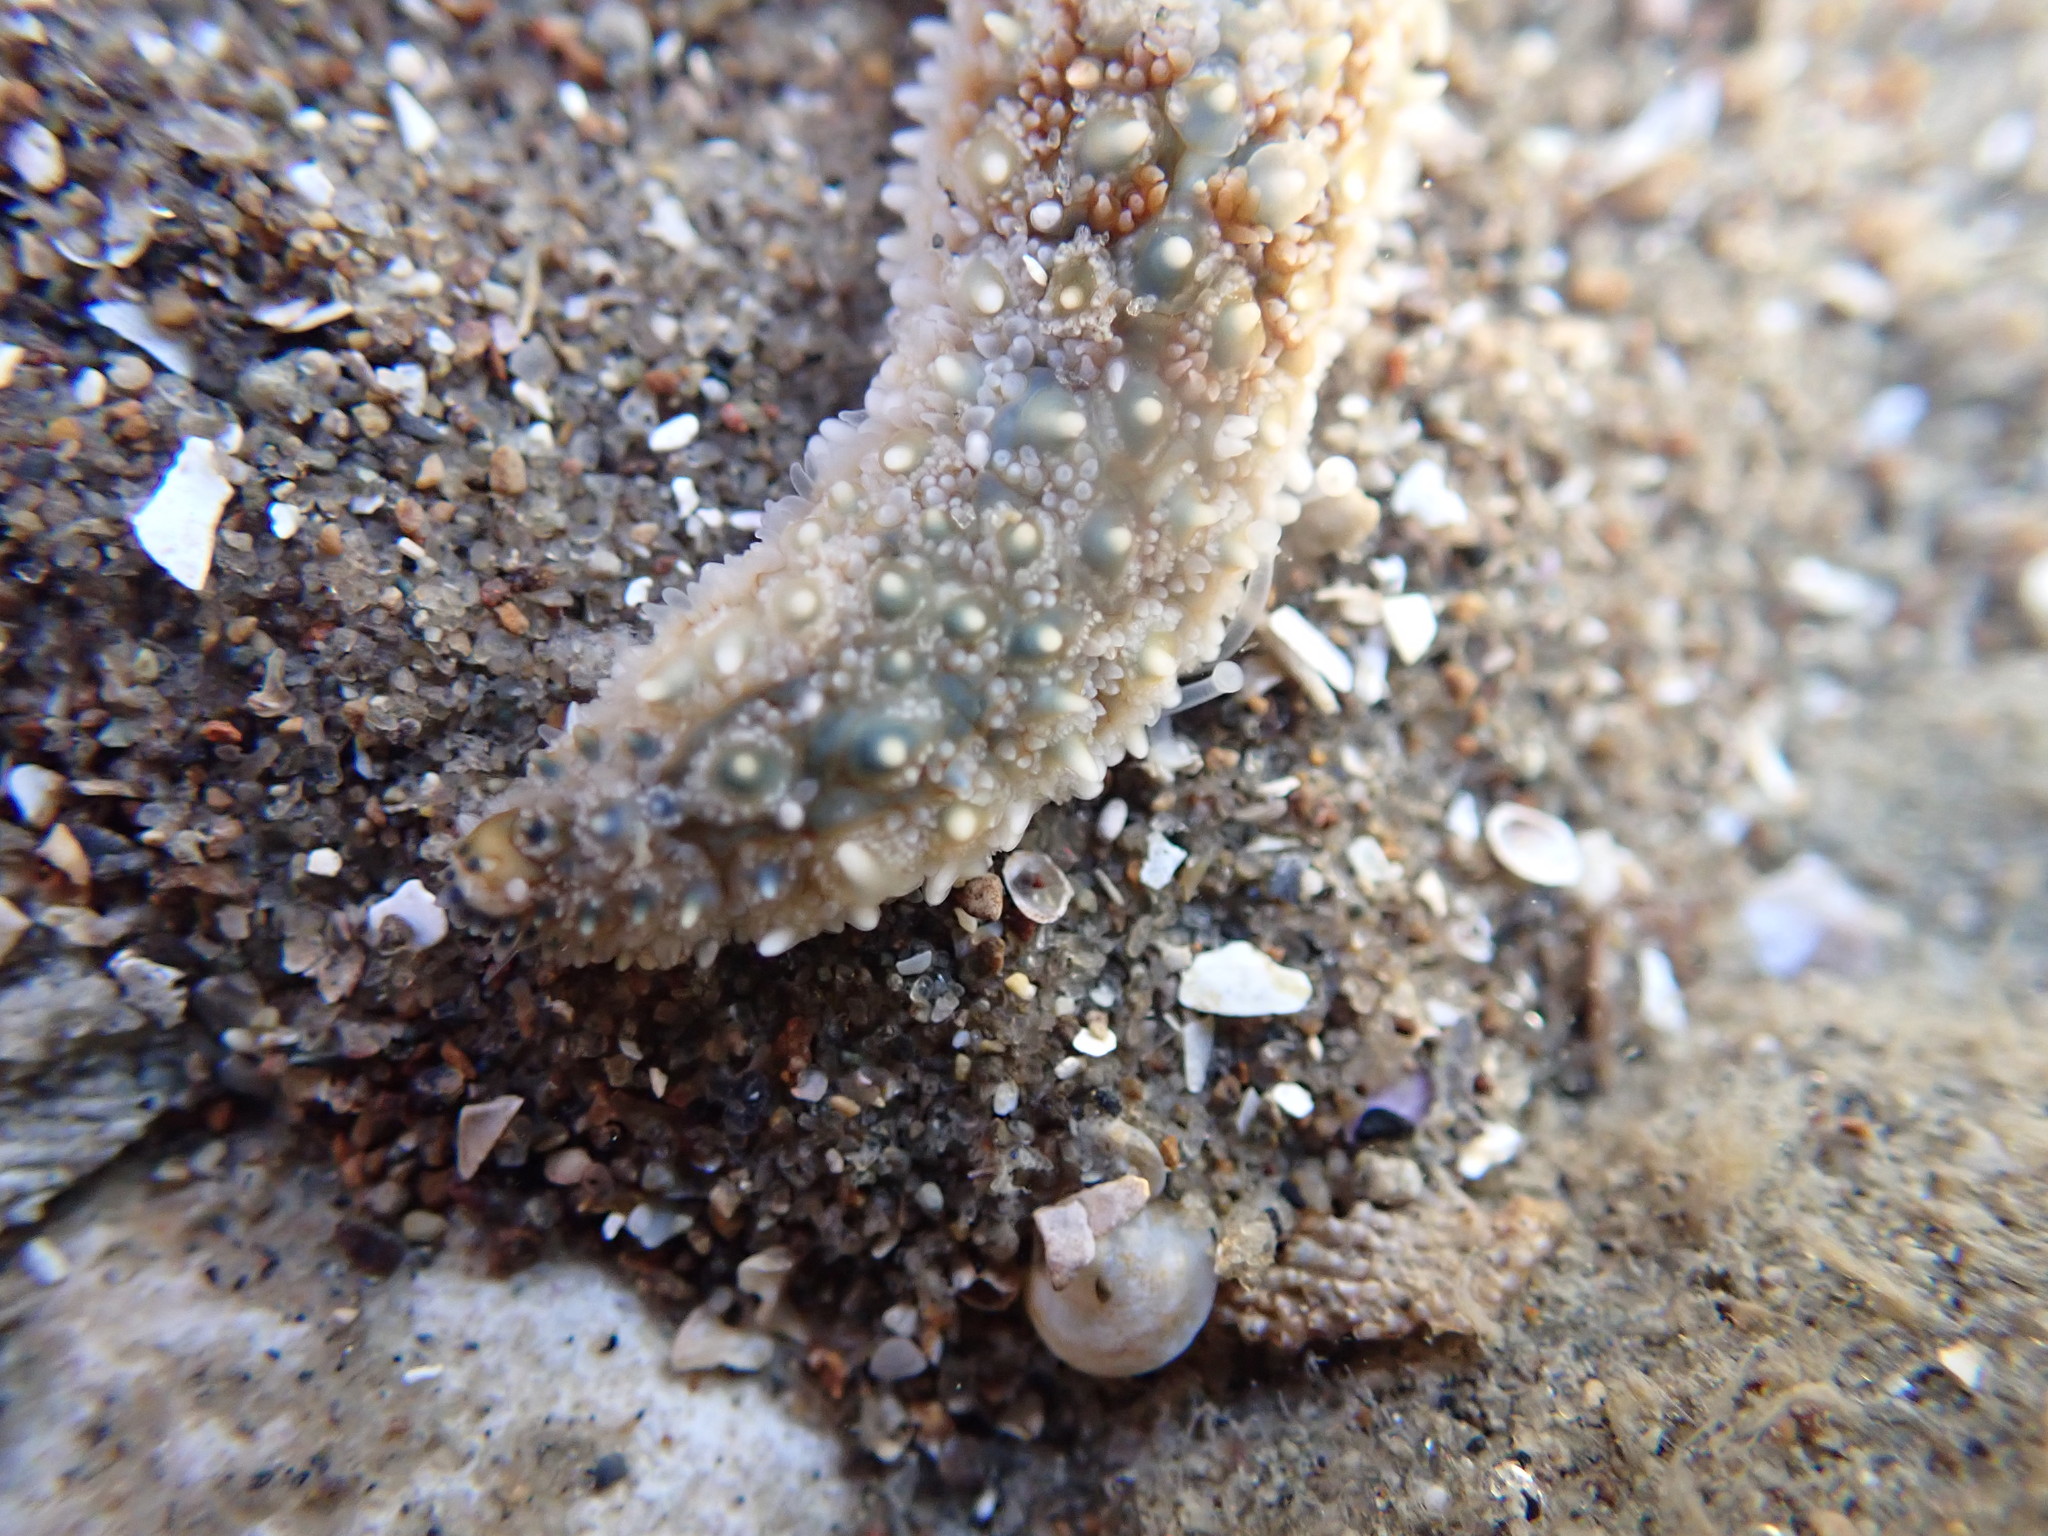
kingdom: Animalia
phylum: Echinodermata
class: Asteroidea
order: Forcipulatida
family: Asteriidae
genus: Coscinasterias
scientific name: Coscinasterias muricata
